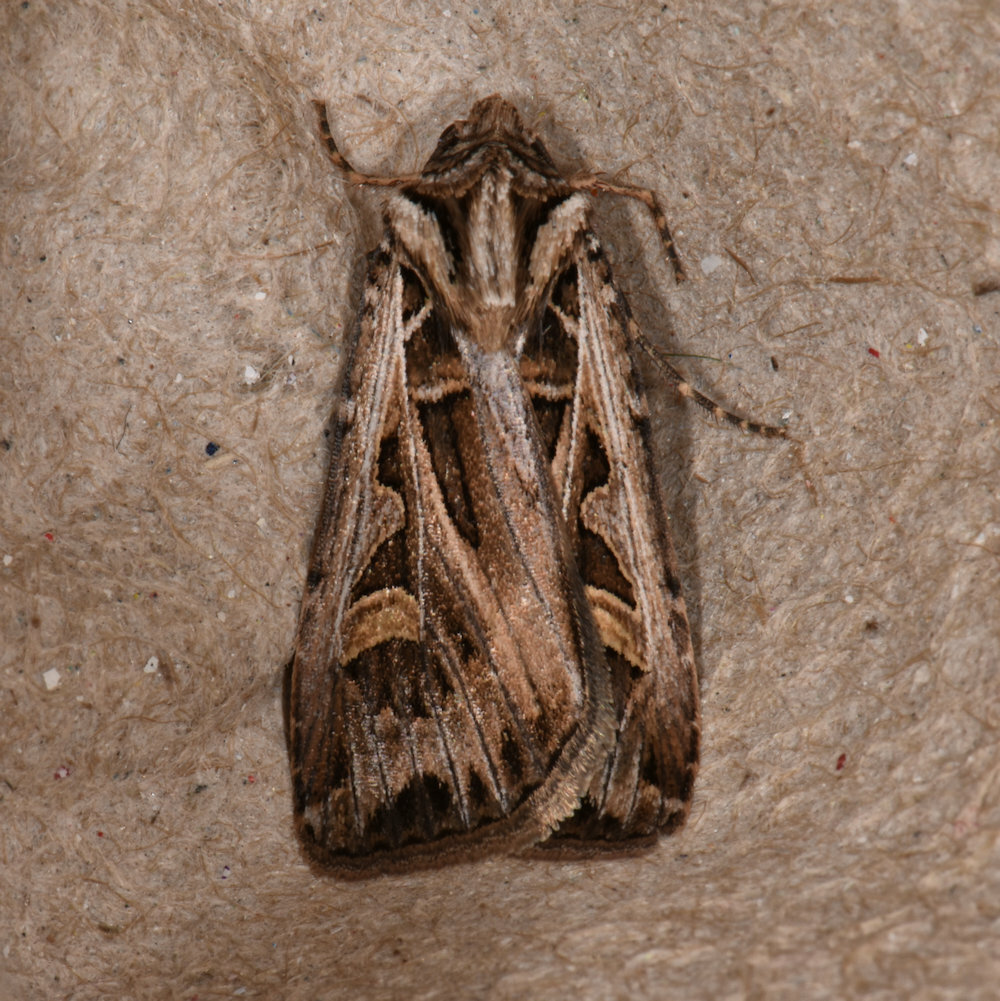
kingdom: Animalia
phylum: Arthropoda
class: Insecta
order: Lepidoptera
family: Noctuidae
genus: Feltia
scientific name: Feltia jaculifera
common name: Dingy cutworm moth
